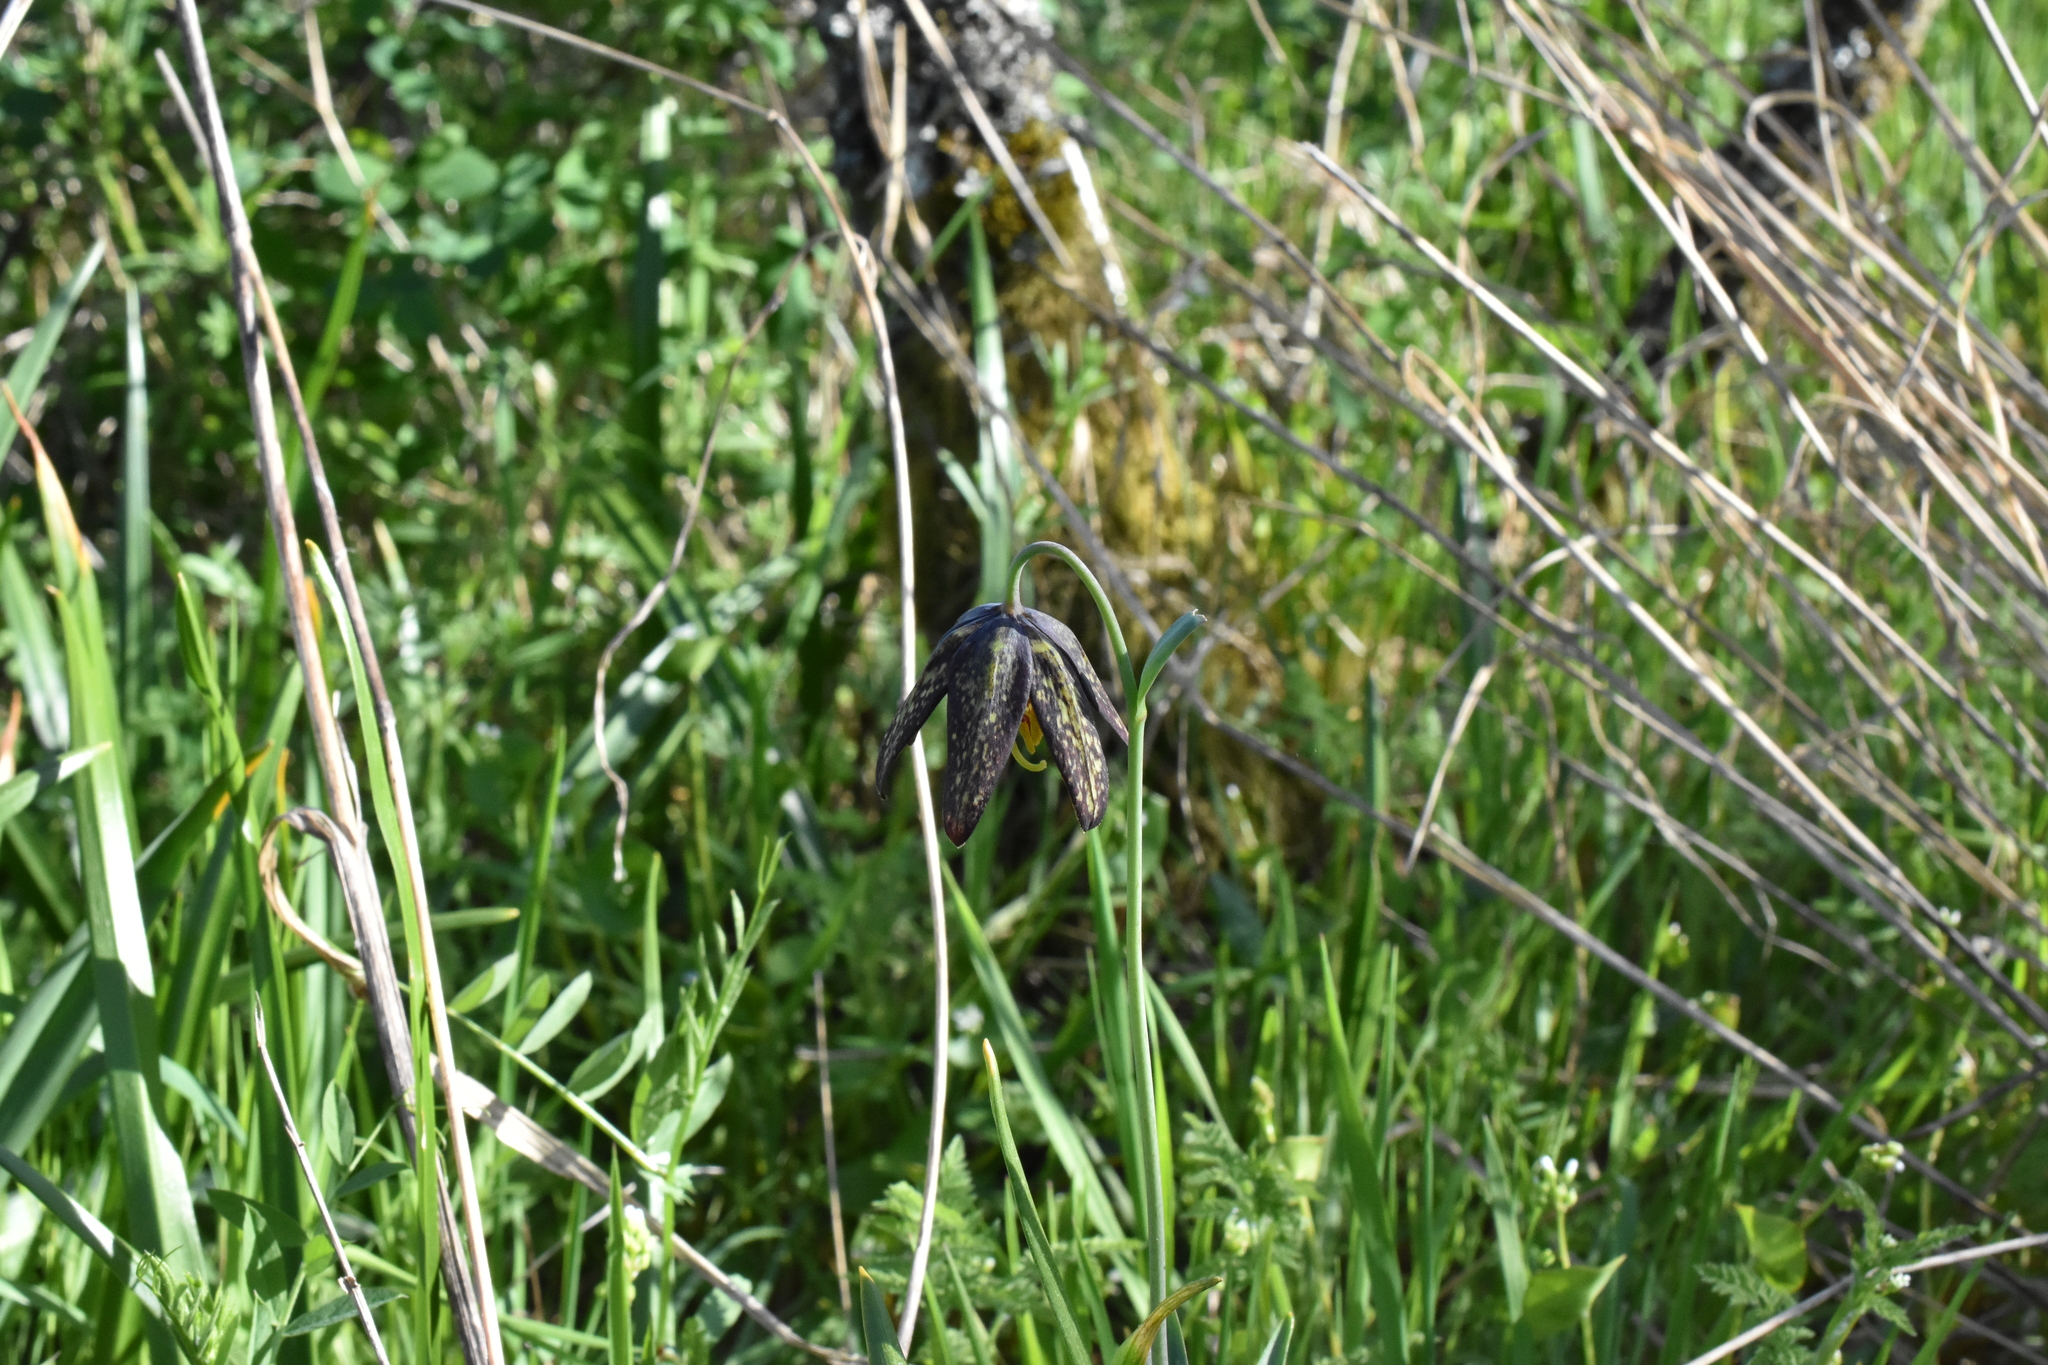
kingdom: Plantae
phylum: Tracheophyta
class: Liliopsida
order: Liliales
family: Liliaceae
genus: Fritillaria
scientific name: Fritillaria affinis
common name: Ojai fritillary
